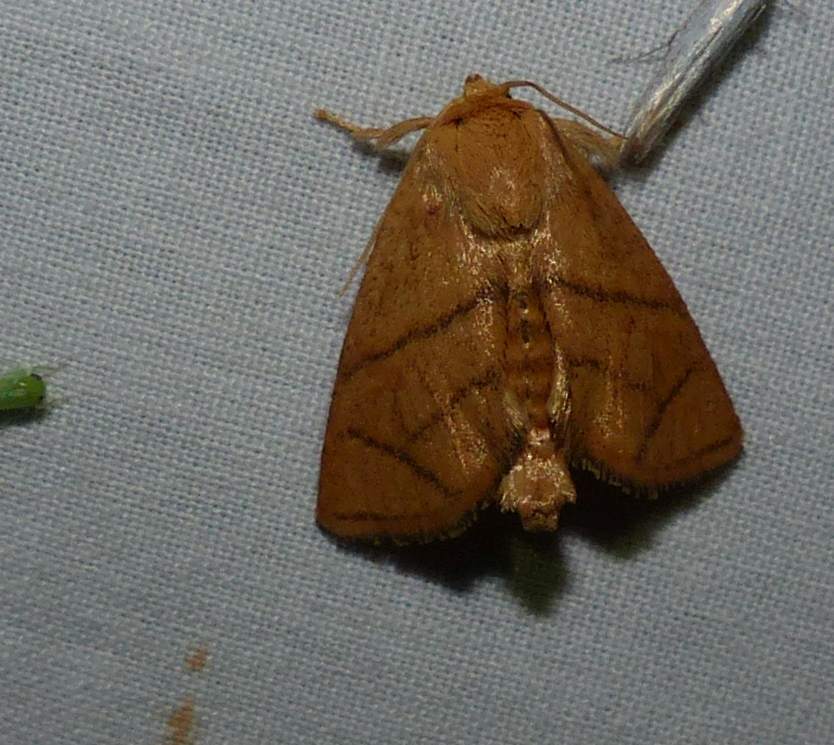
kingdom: Animalia
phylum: Arthropoda
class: Insecta
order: Lepidoptera
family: Limacodidae
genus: Apoda
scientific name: Apoda y-inversa
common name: Yellow-collared slug moth
